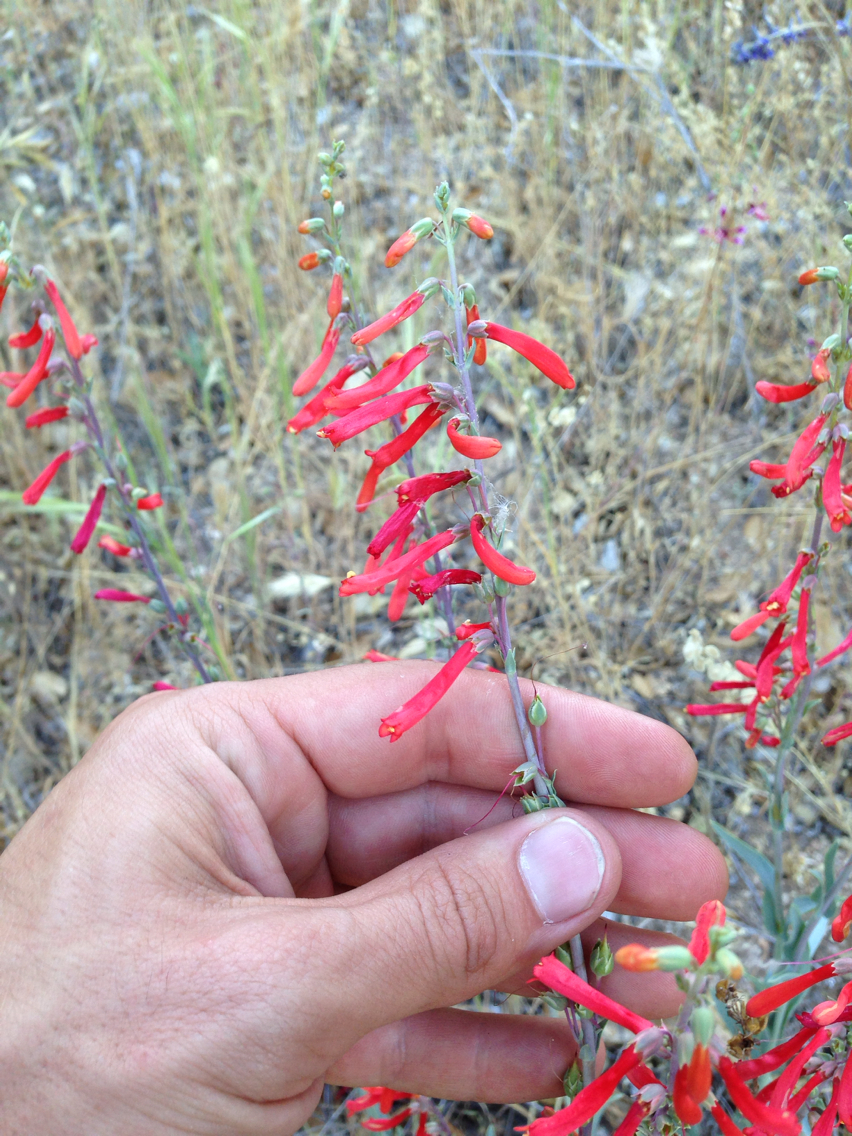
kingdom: Plantae
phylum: Tracheophyta
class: Magnoliopsida
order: Lamiales
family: Plantaginaceae
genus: Penstemon
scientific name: Penstemon centranthifolius
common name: Scarlet bugler
